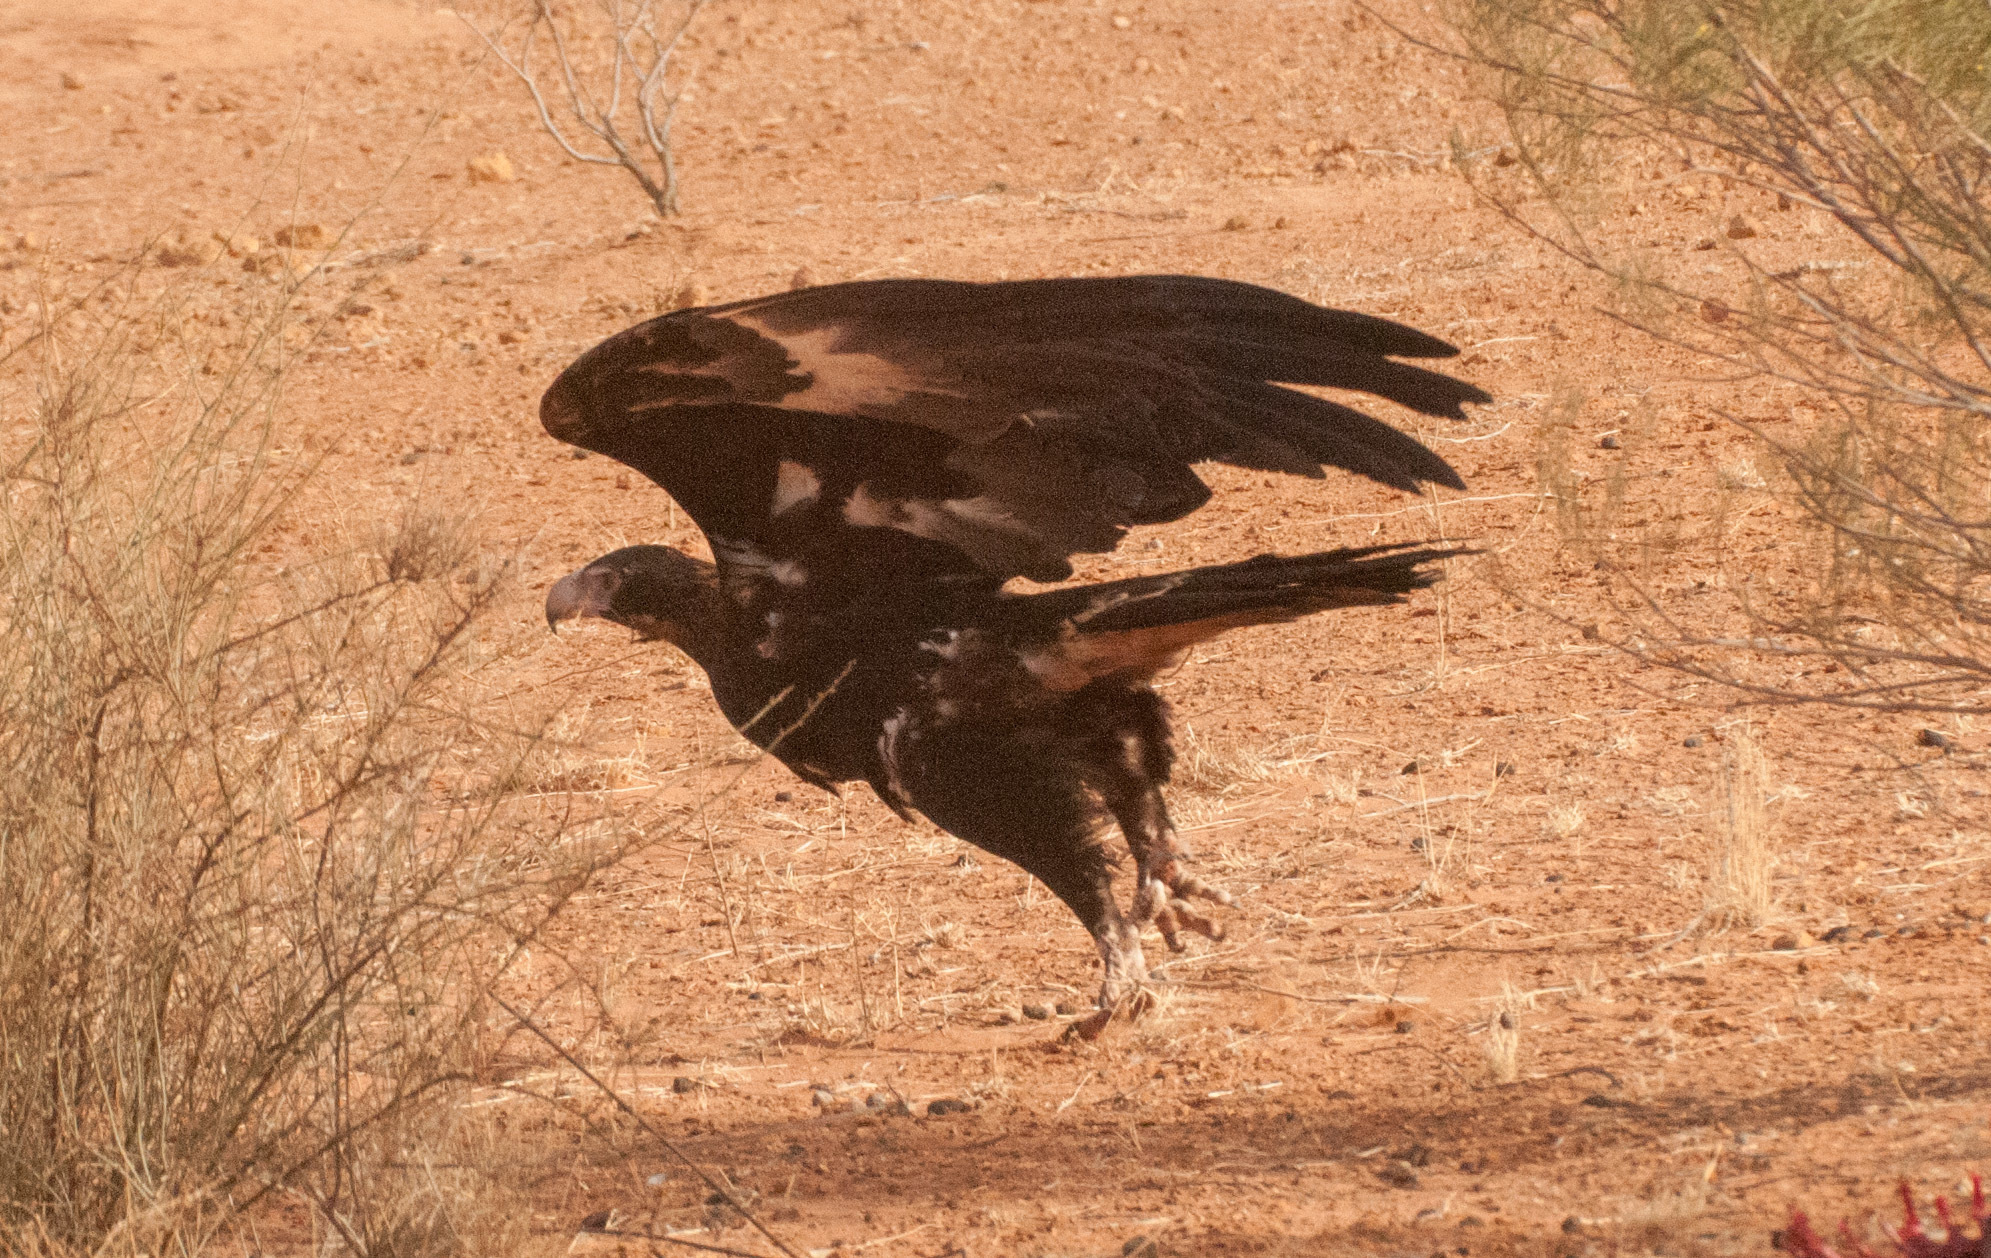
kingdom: Animalia
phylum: Chordata
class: Aves
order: Accipitriformes
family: Accipitridae
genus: Aquila
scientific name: Aquila audax
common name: Wedge-tailed eagle
